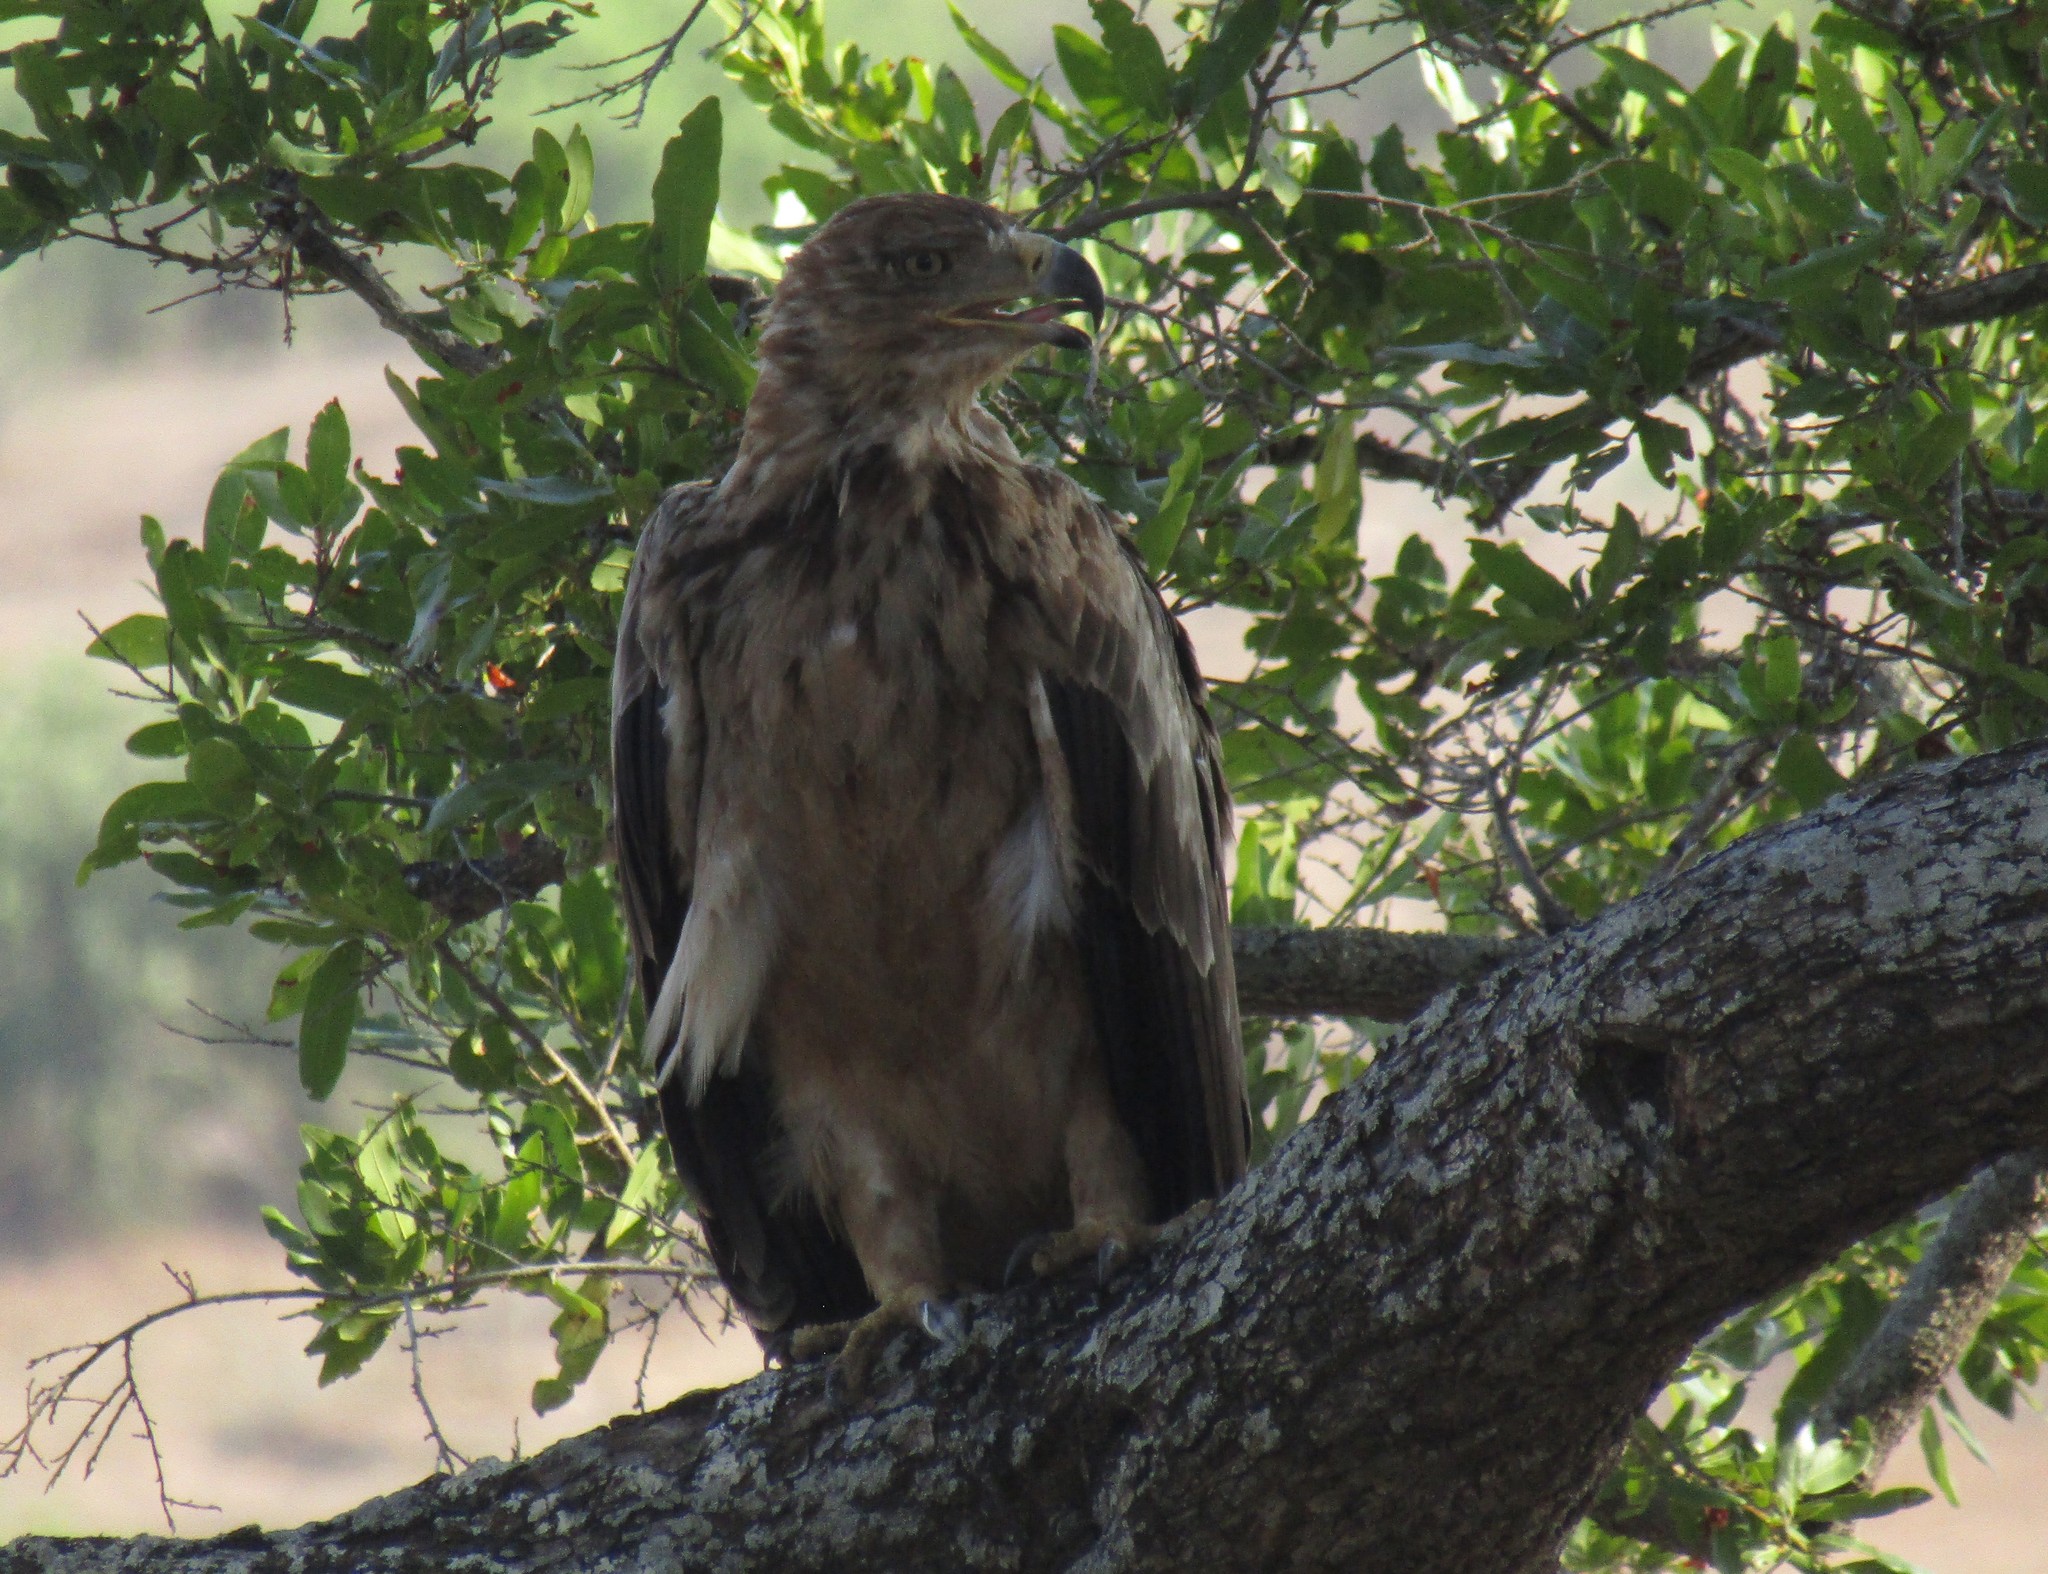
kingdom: Animalia
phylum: Chordata
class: Aves
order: Accipitriformes
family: Accipitridae
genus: Aquila
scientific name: Aquila rapax
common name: Tawny eagle
